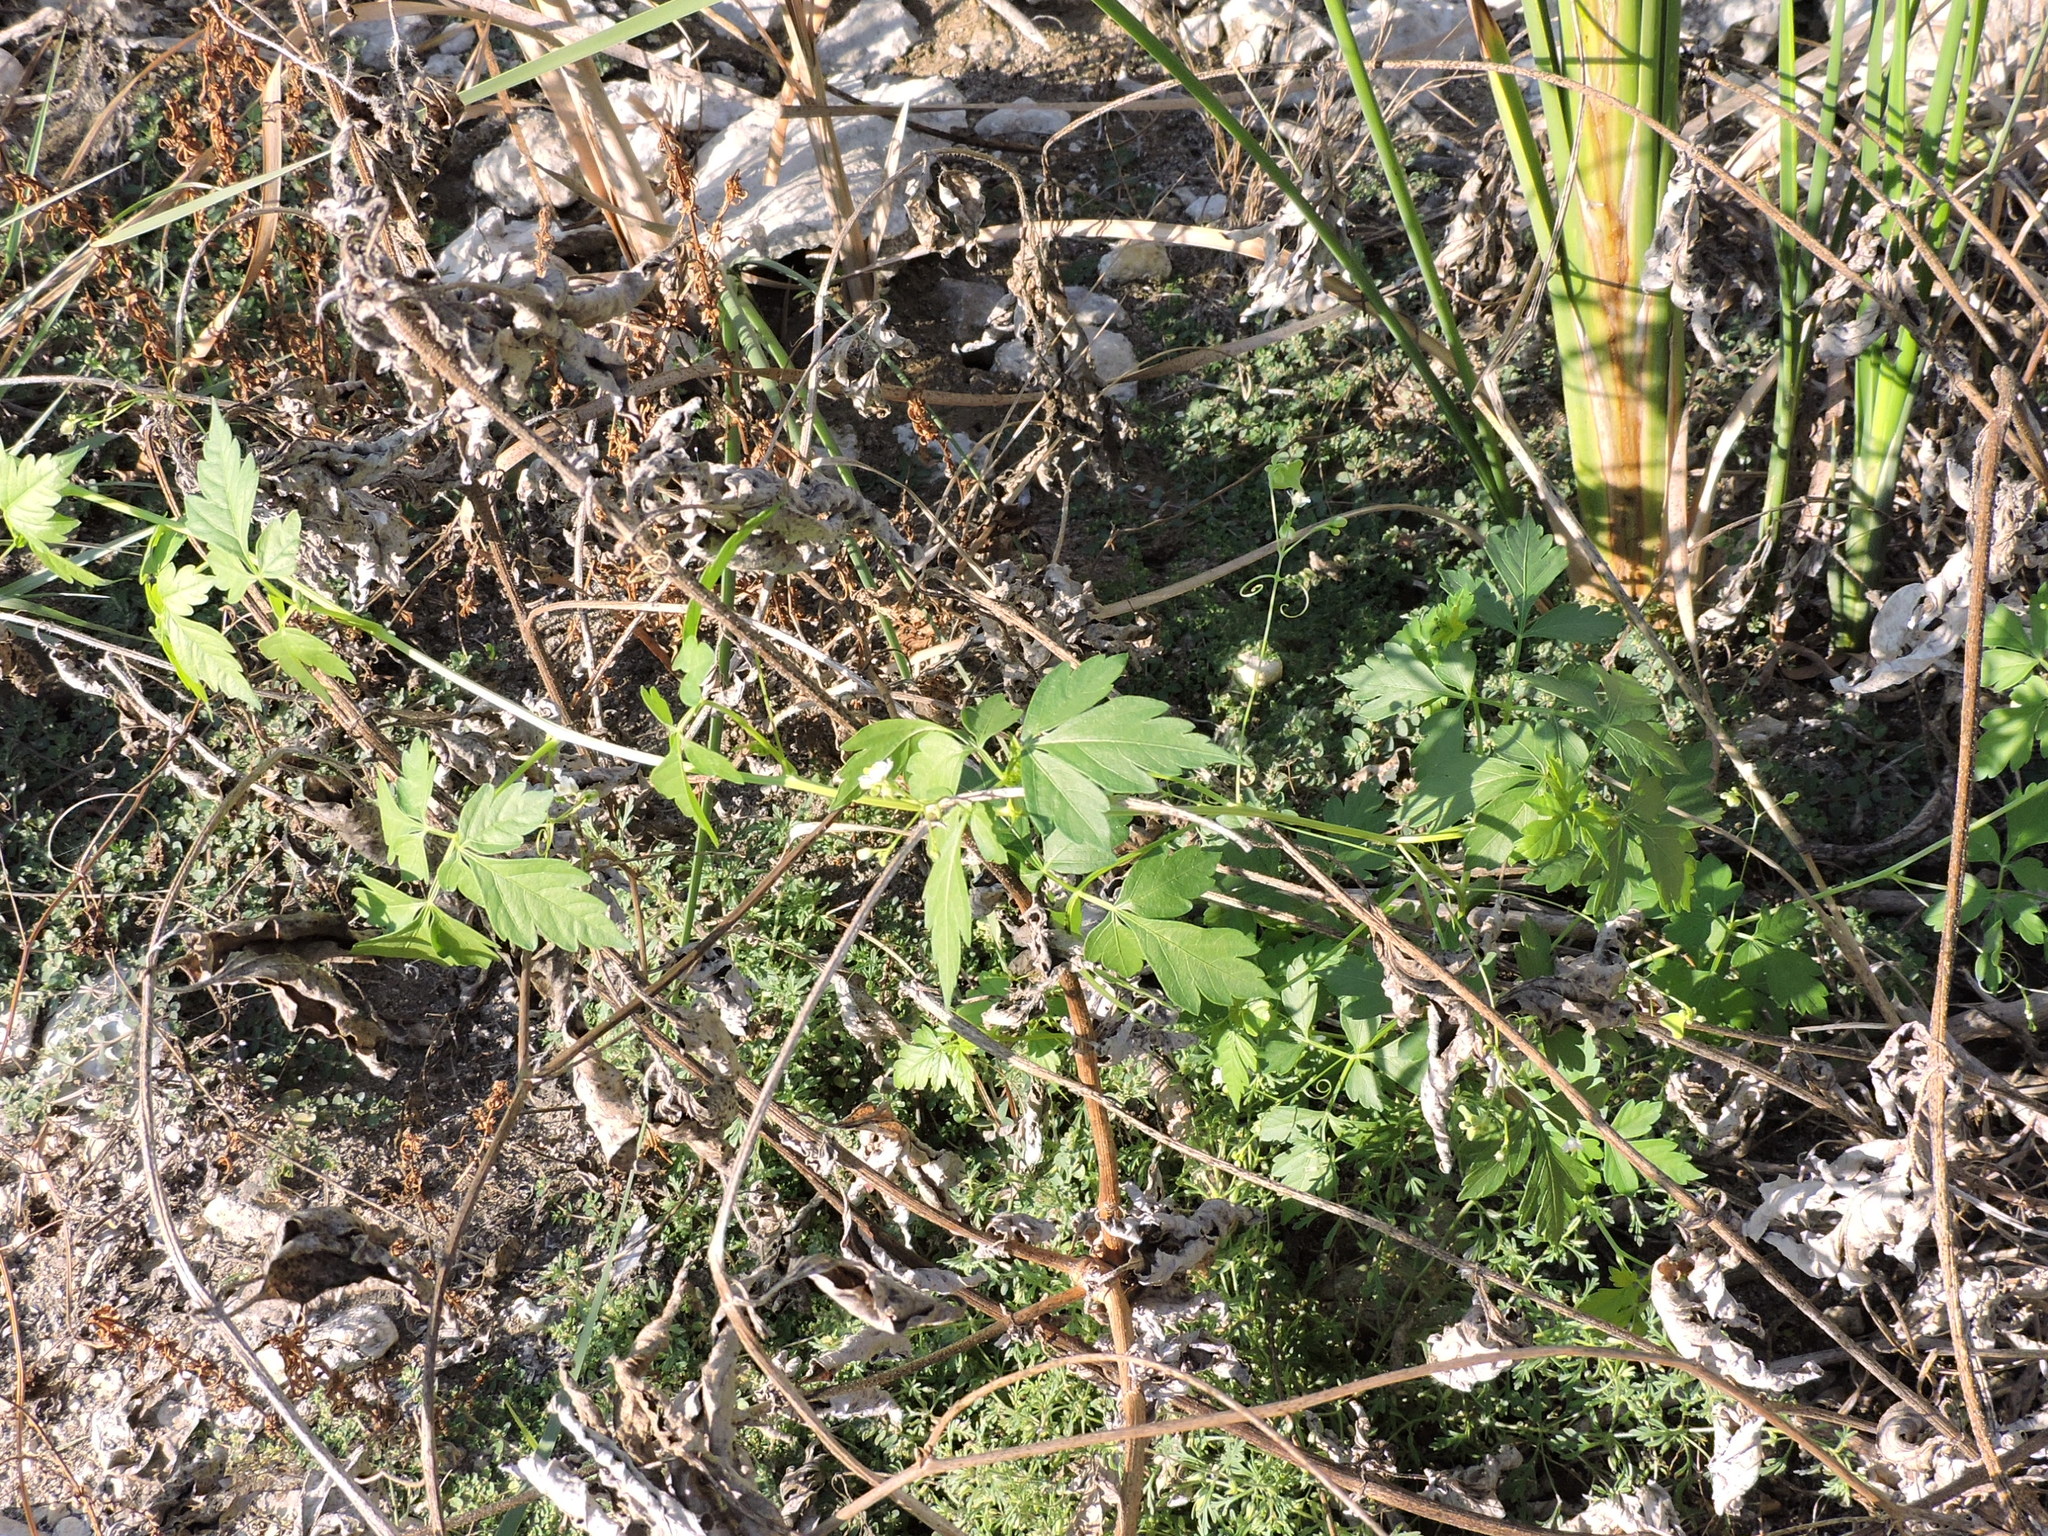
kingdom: Plantae
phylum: Tracheophyta
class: Magnoliopsida
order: Sapindales
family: Sapindaceae
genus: Cardiospermum
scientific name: Cardiospermum halicacabum
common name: Balloon vine
